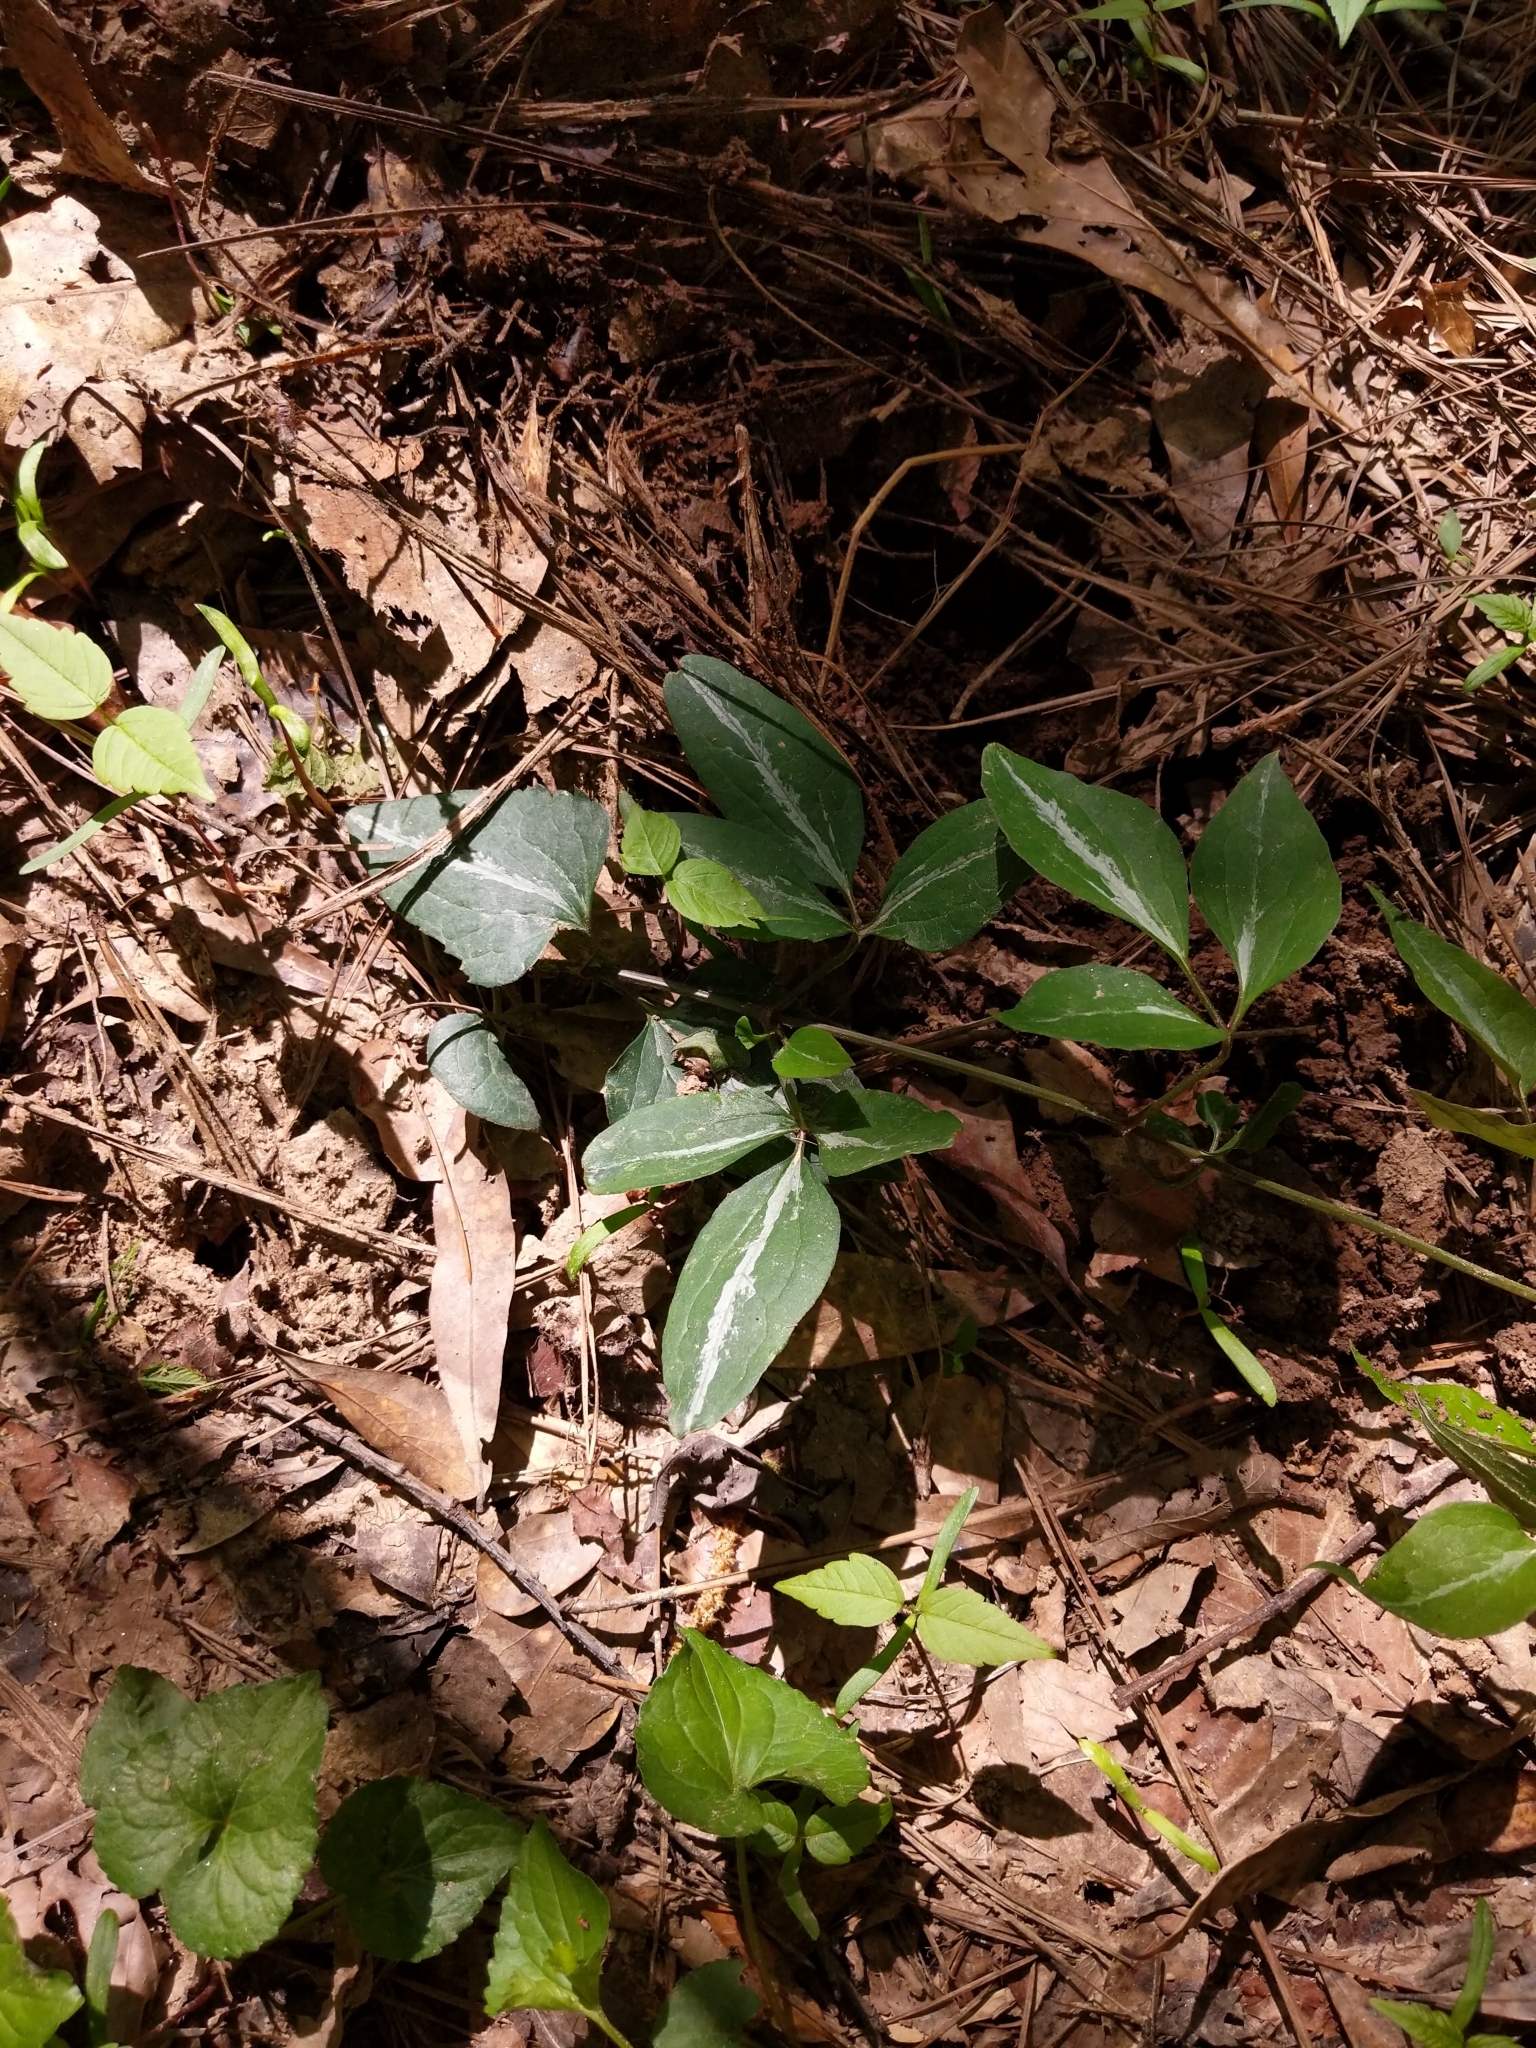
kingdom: Plantae
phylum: Tracheophyta
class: Magnoliopsida
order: Ranunculales
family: Ranunculaceae
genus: Clematis
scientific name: Clematis terniflora
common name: Sweet autumn clematis
